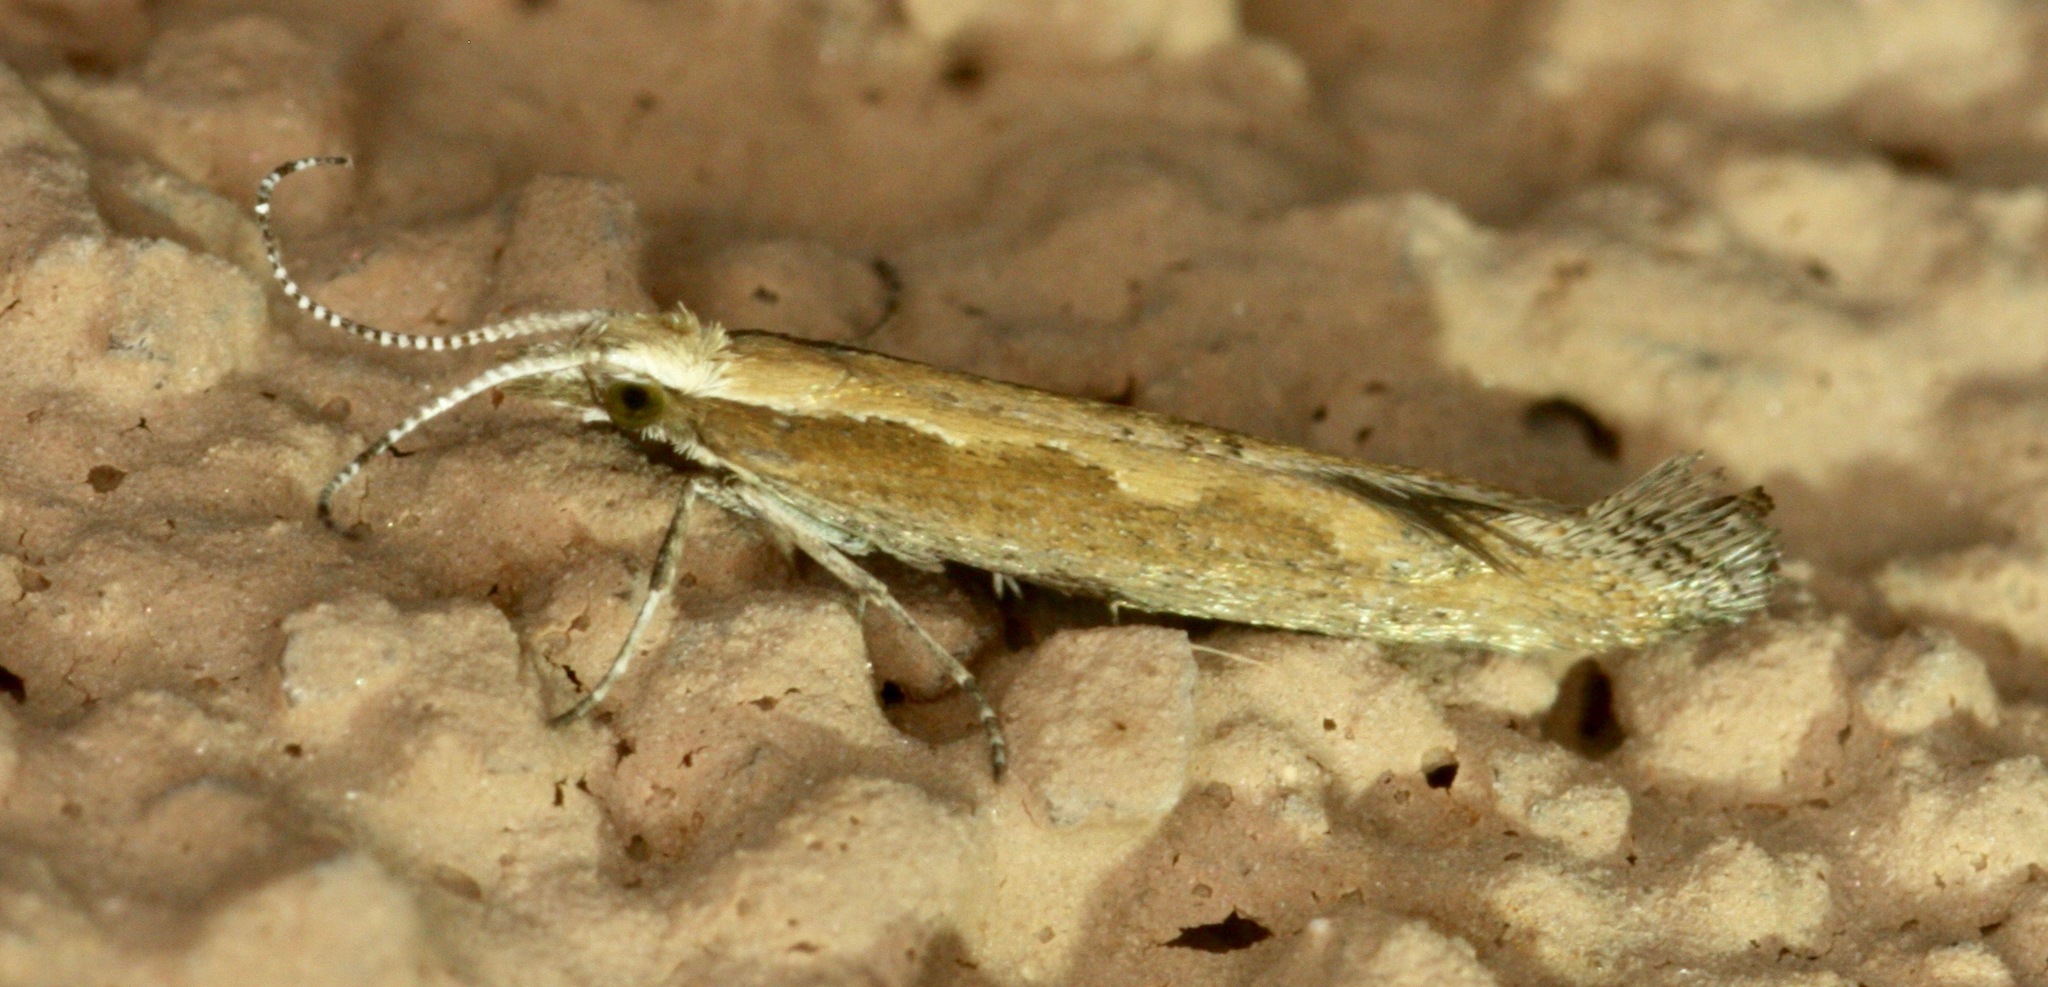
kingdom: Animalia
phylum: Arthropoda
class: Insecta
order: Lepidoptera
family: Plutellidae
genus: Plutella
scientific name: Plutella xylostella
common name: Diamond-back moth
